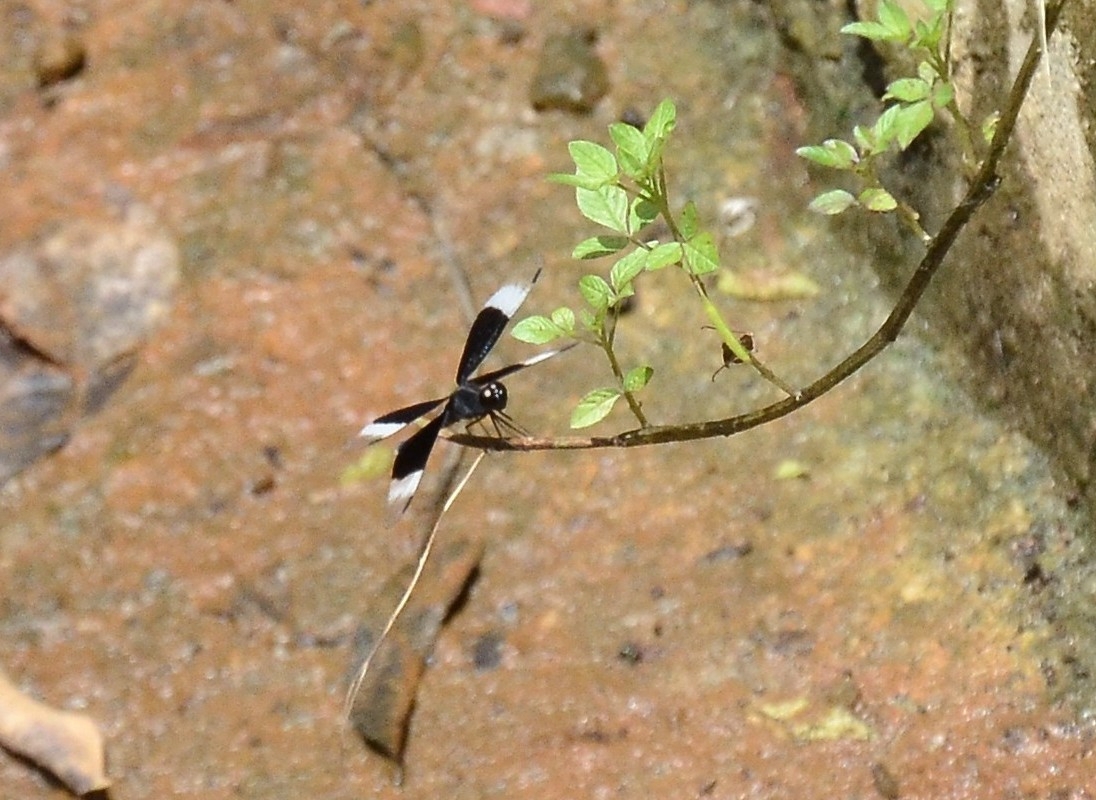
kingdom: Animalia
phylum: Arthropoda
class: Insecta
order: Odonata
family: Libellulidae
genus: Neurothemis
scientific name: Neurothemis tullia
